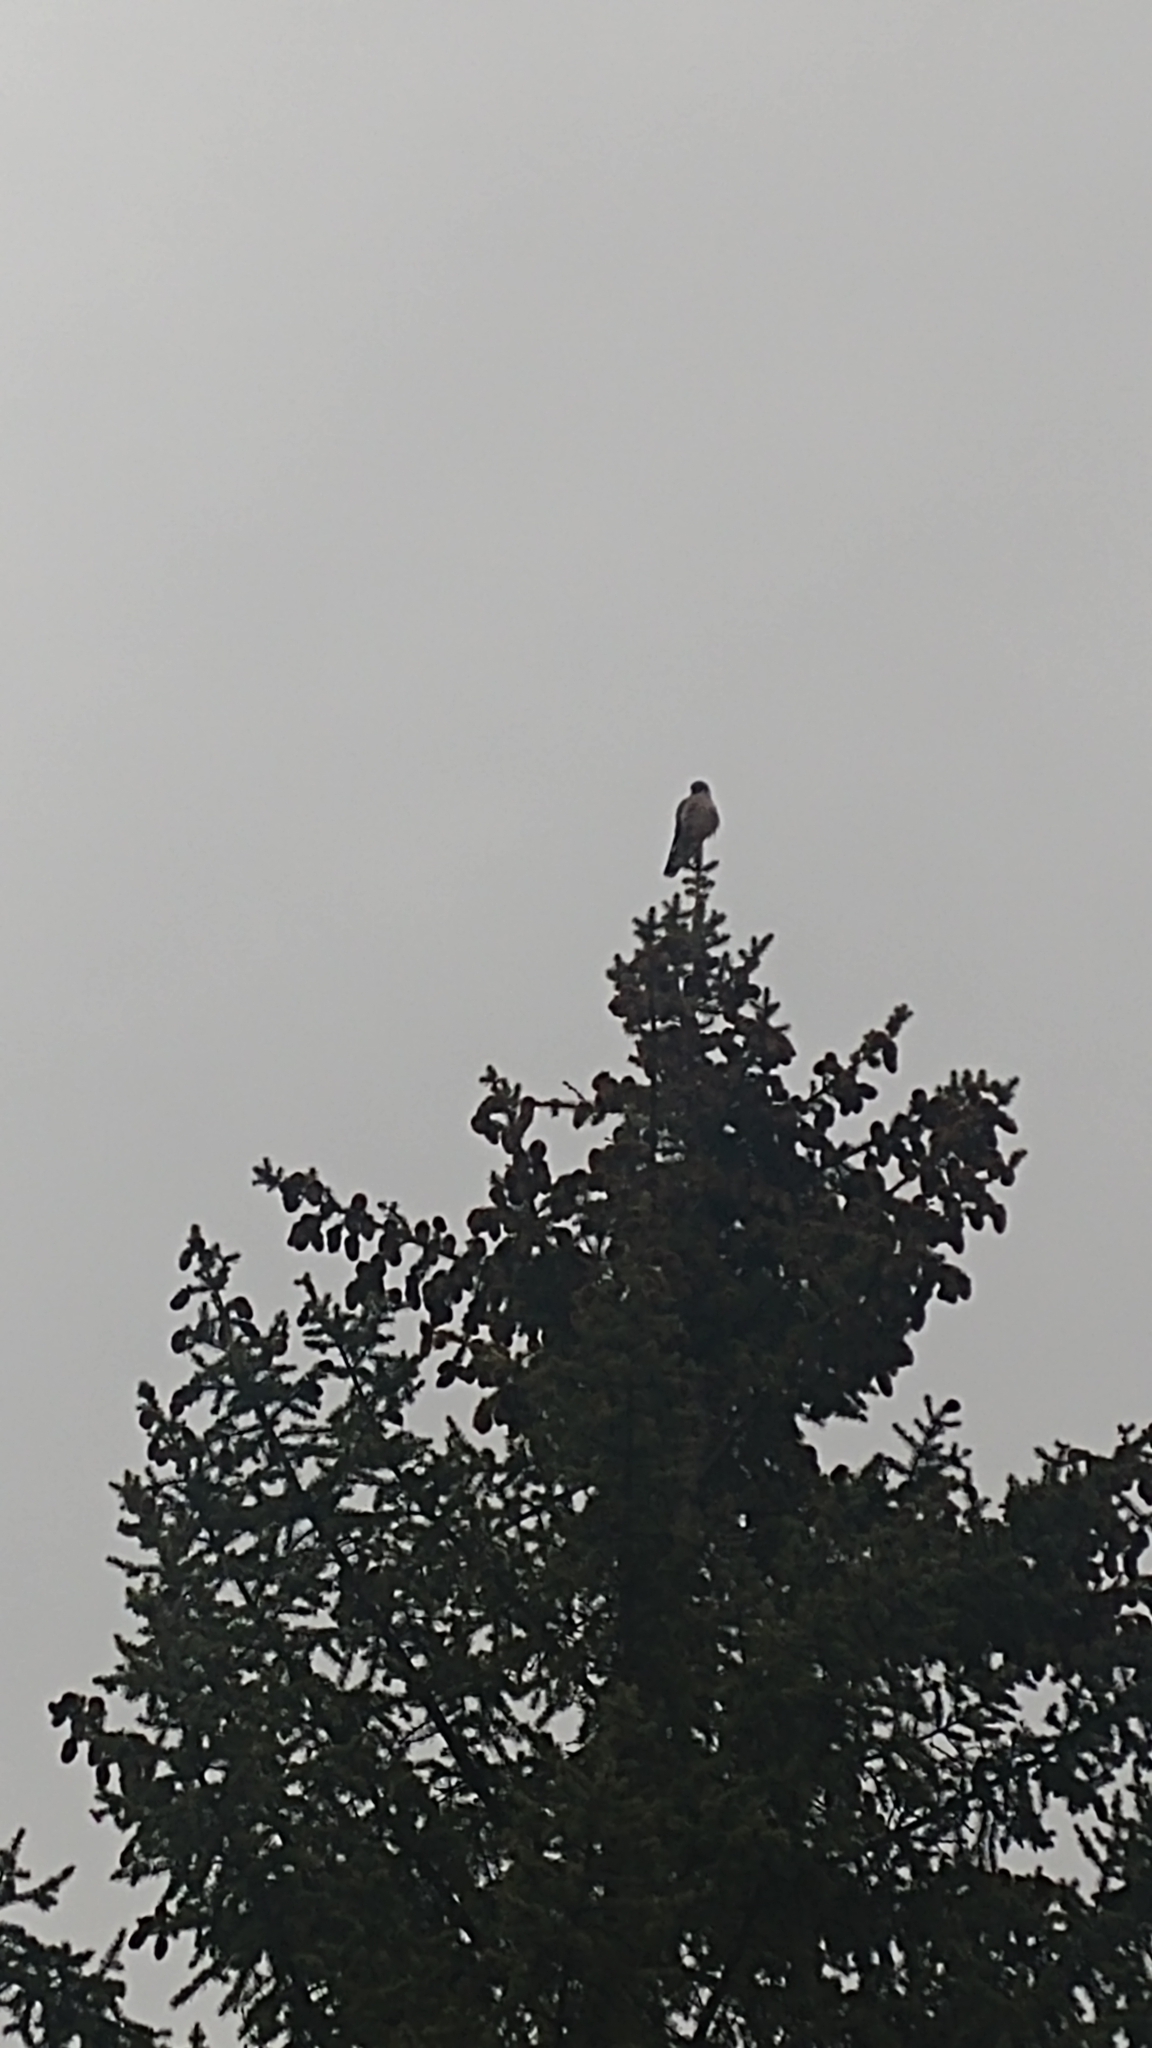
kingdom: Animalia
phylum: Chordata
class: Aves
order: Falconiformes
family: Falconidae
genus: Falco
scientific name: Falco columbarius
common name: Merlin
